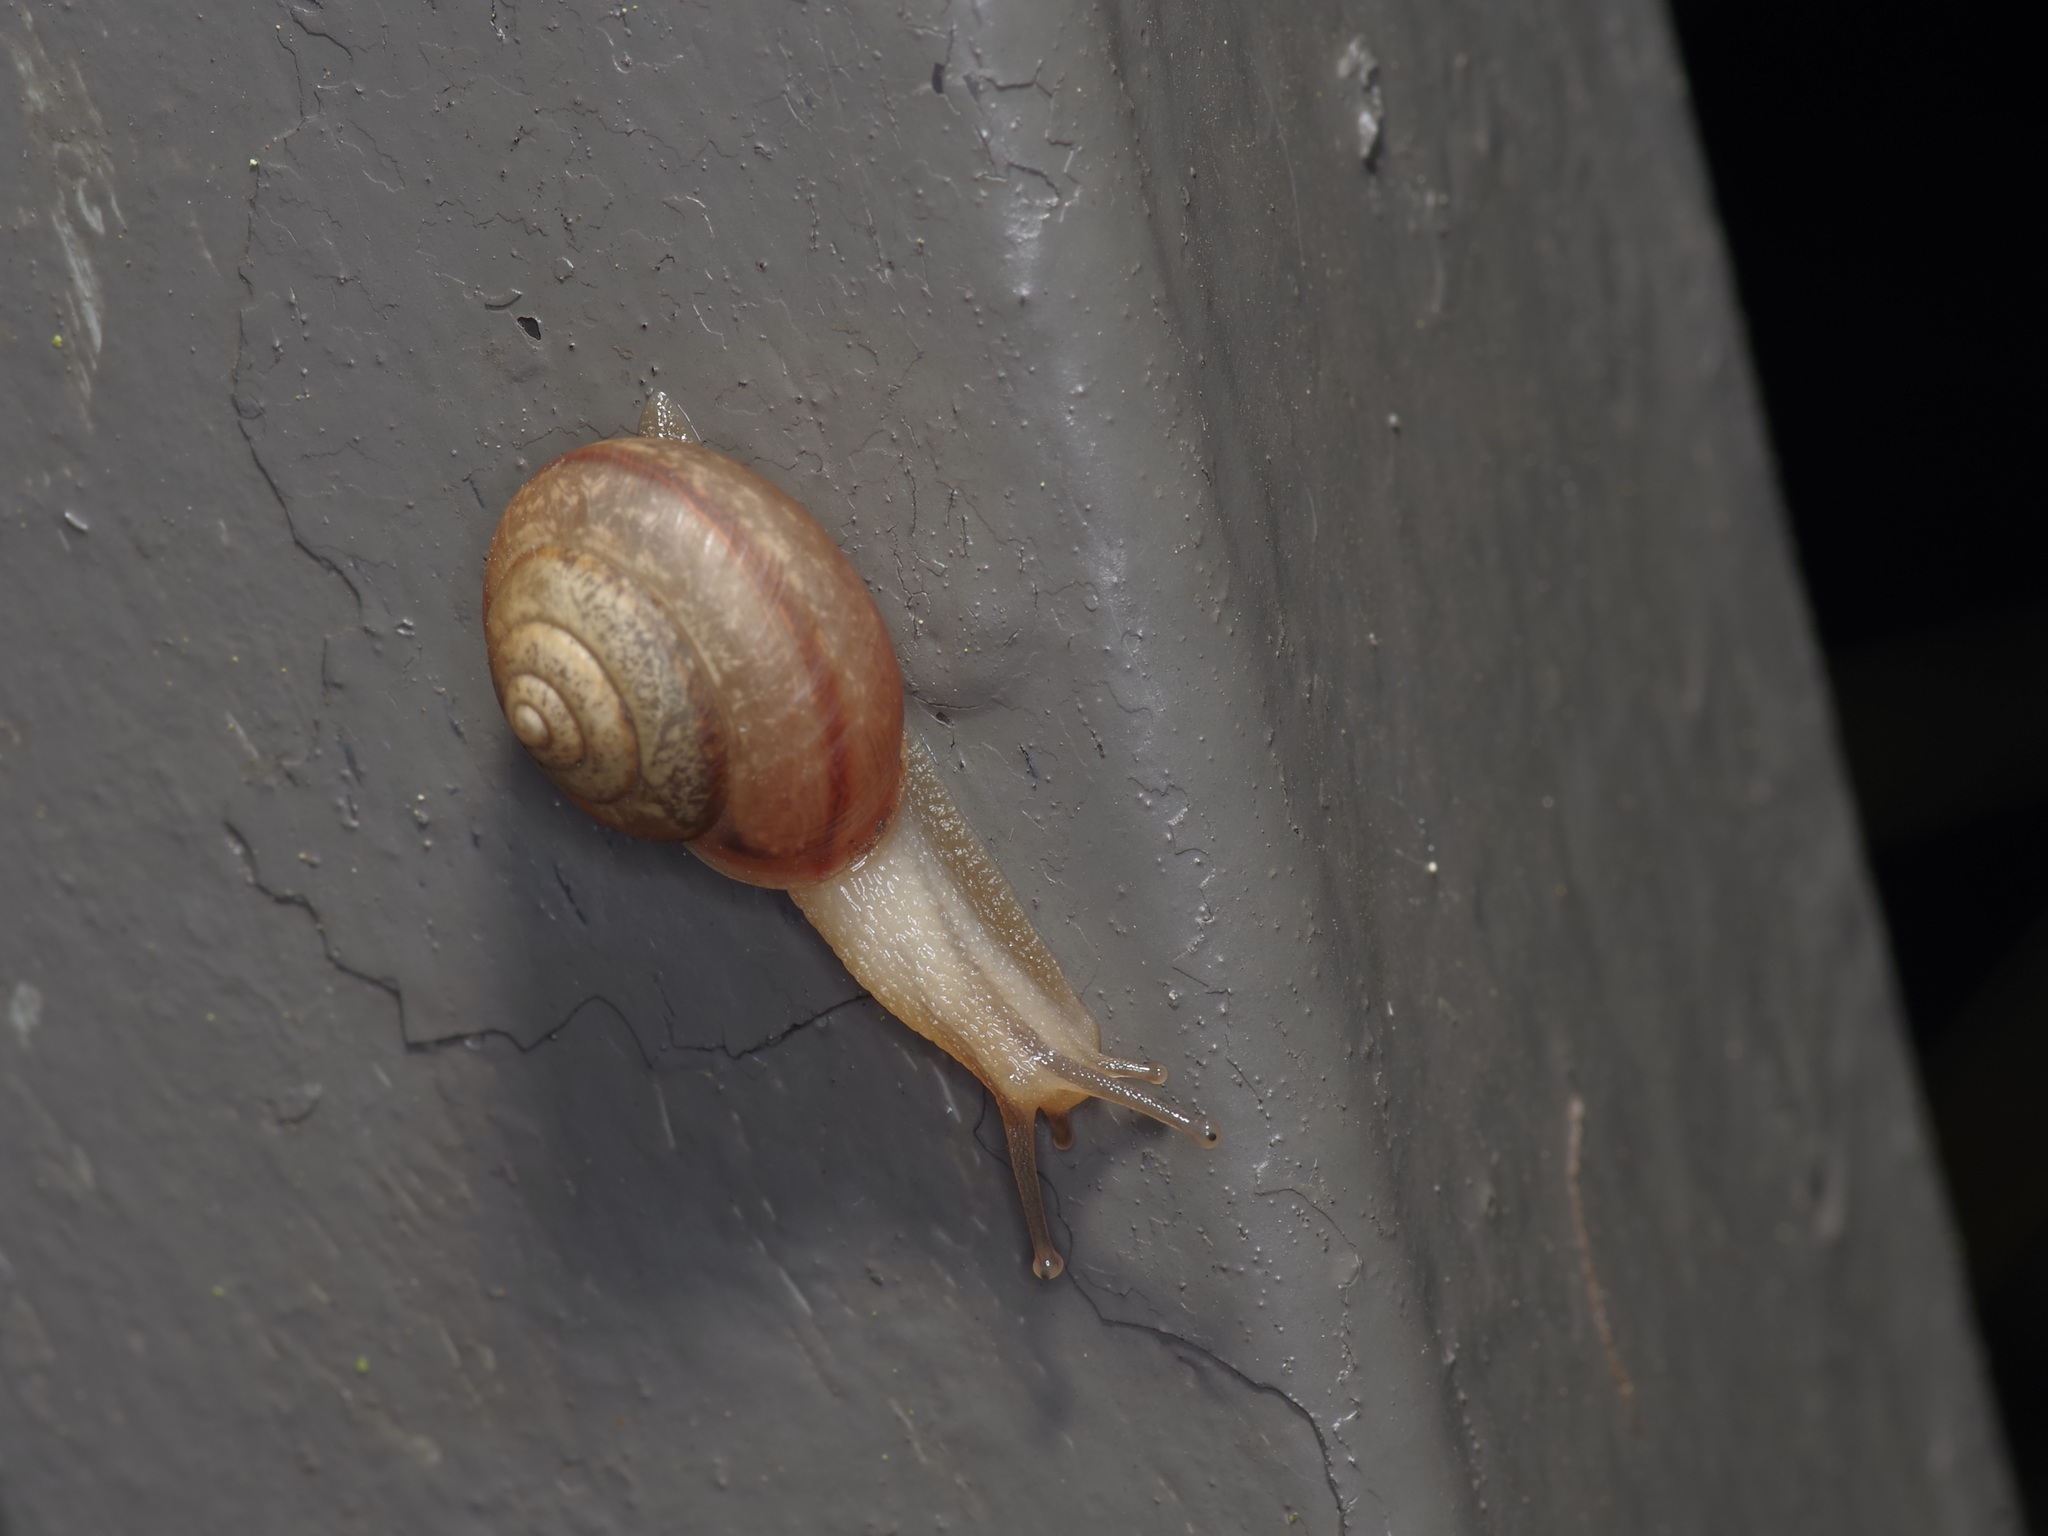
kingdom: Animalia
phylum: Mollusca
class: Gastropoda
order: Stylommatophora
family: Camaenidae
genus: Bradybaena
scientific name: Bradybaena similaris
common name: Asian trampsnail
